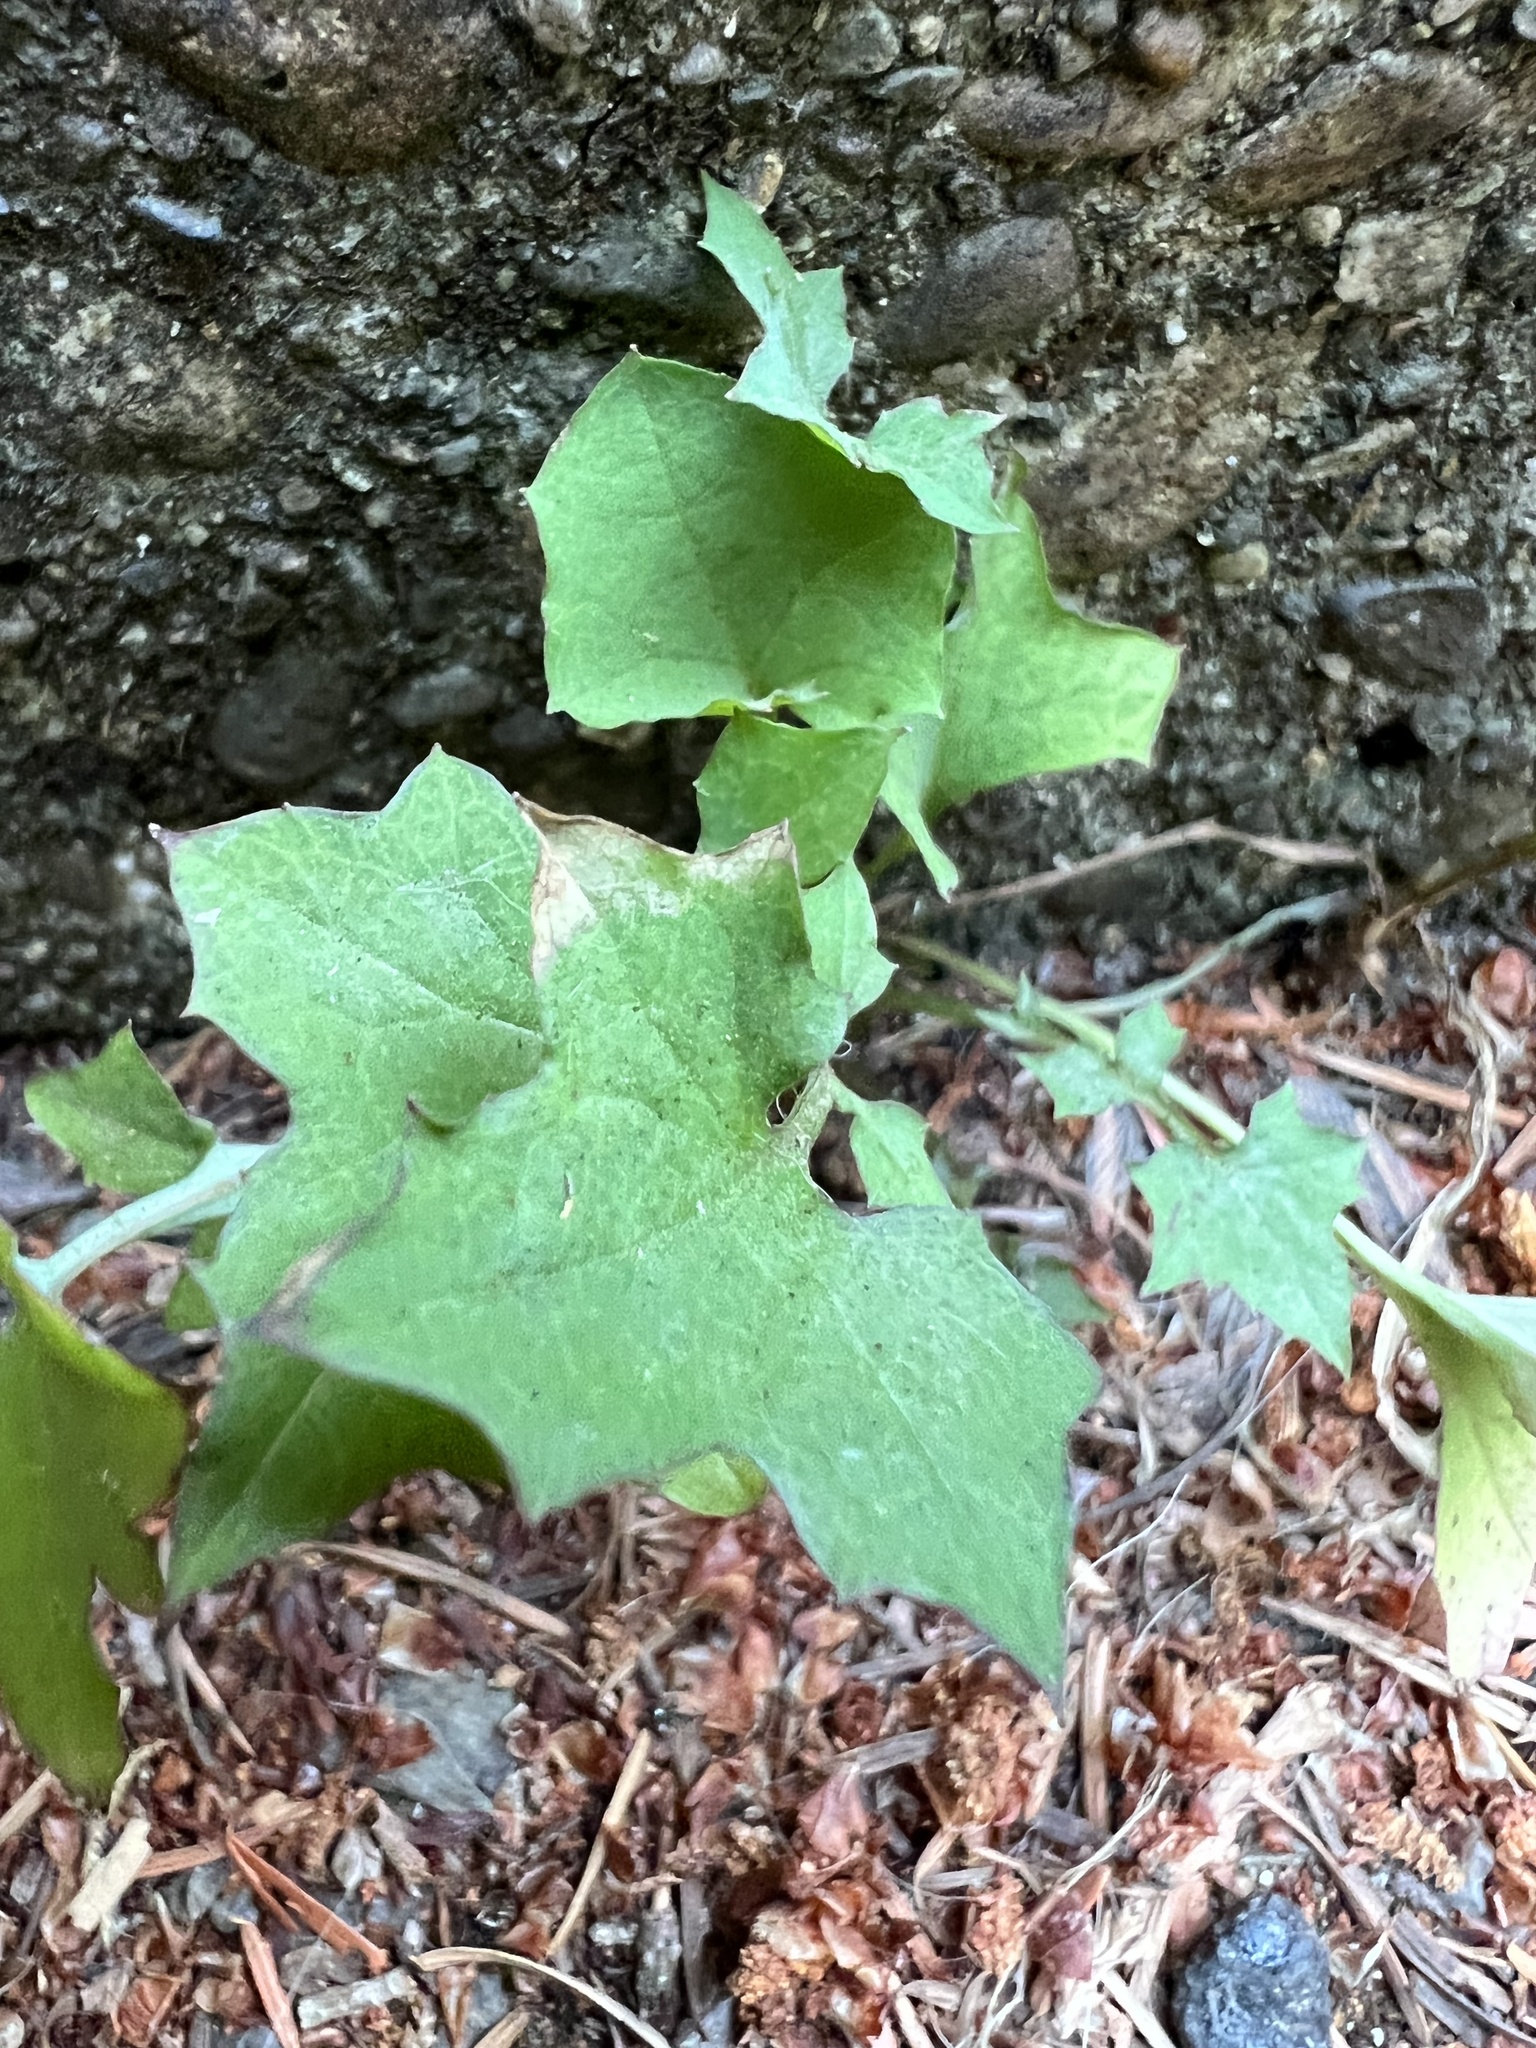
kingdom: Plantae
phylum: Tracheophyta
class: Magnoliopsida
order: Asterales
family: Asteraceae
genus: Mycelis
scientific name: Mycelis muralis
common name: Wall lettuce
